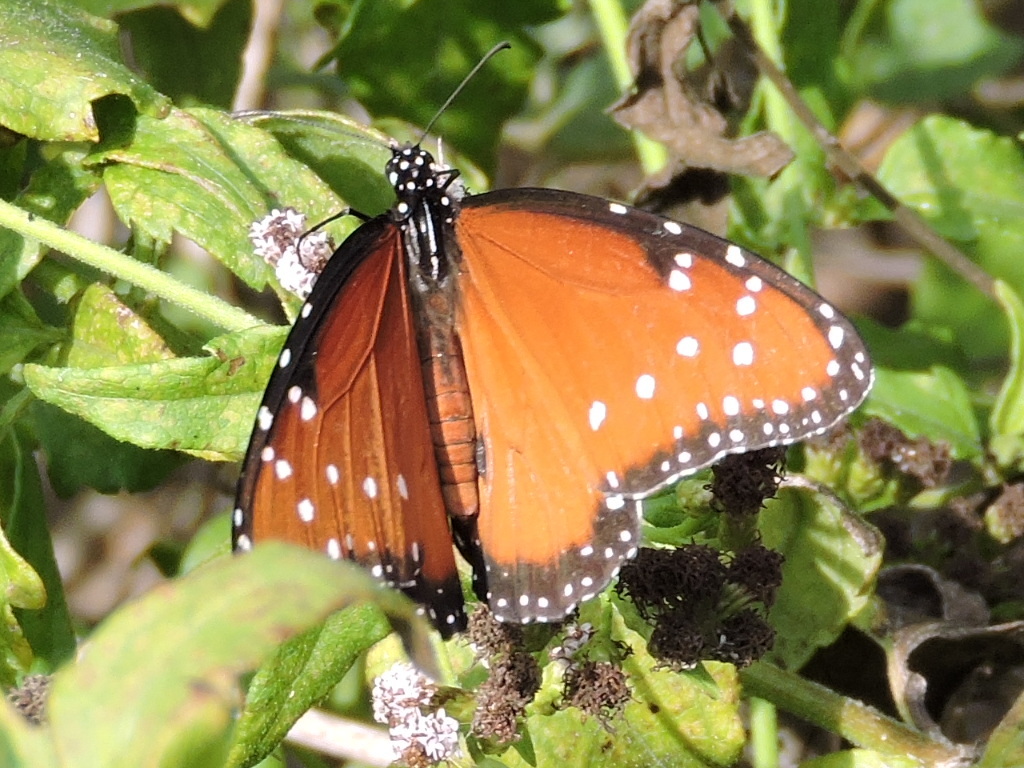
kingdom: Animalia
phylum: Arthropoda
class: Insecta
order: Lepidoptera
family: Nymphalidae
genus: Danaus
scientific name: Danaus gilippus
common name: Queen
